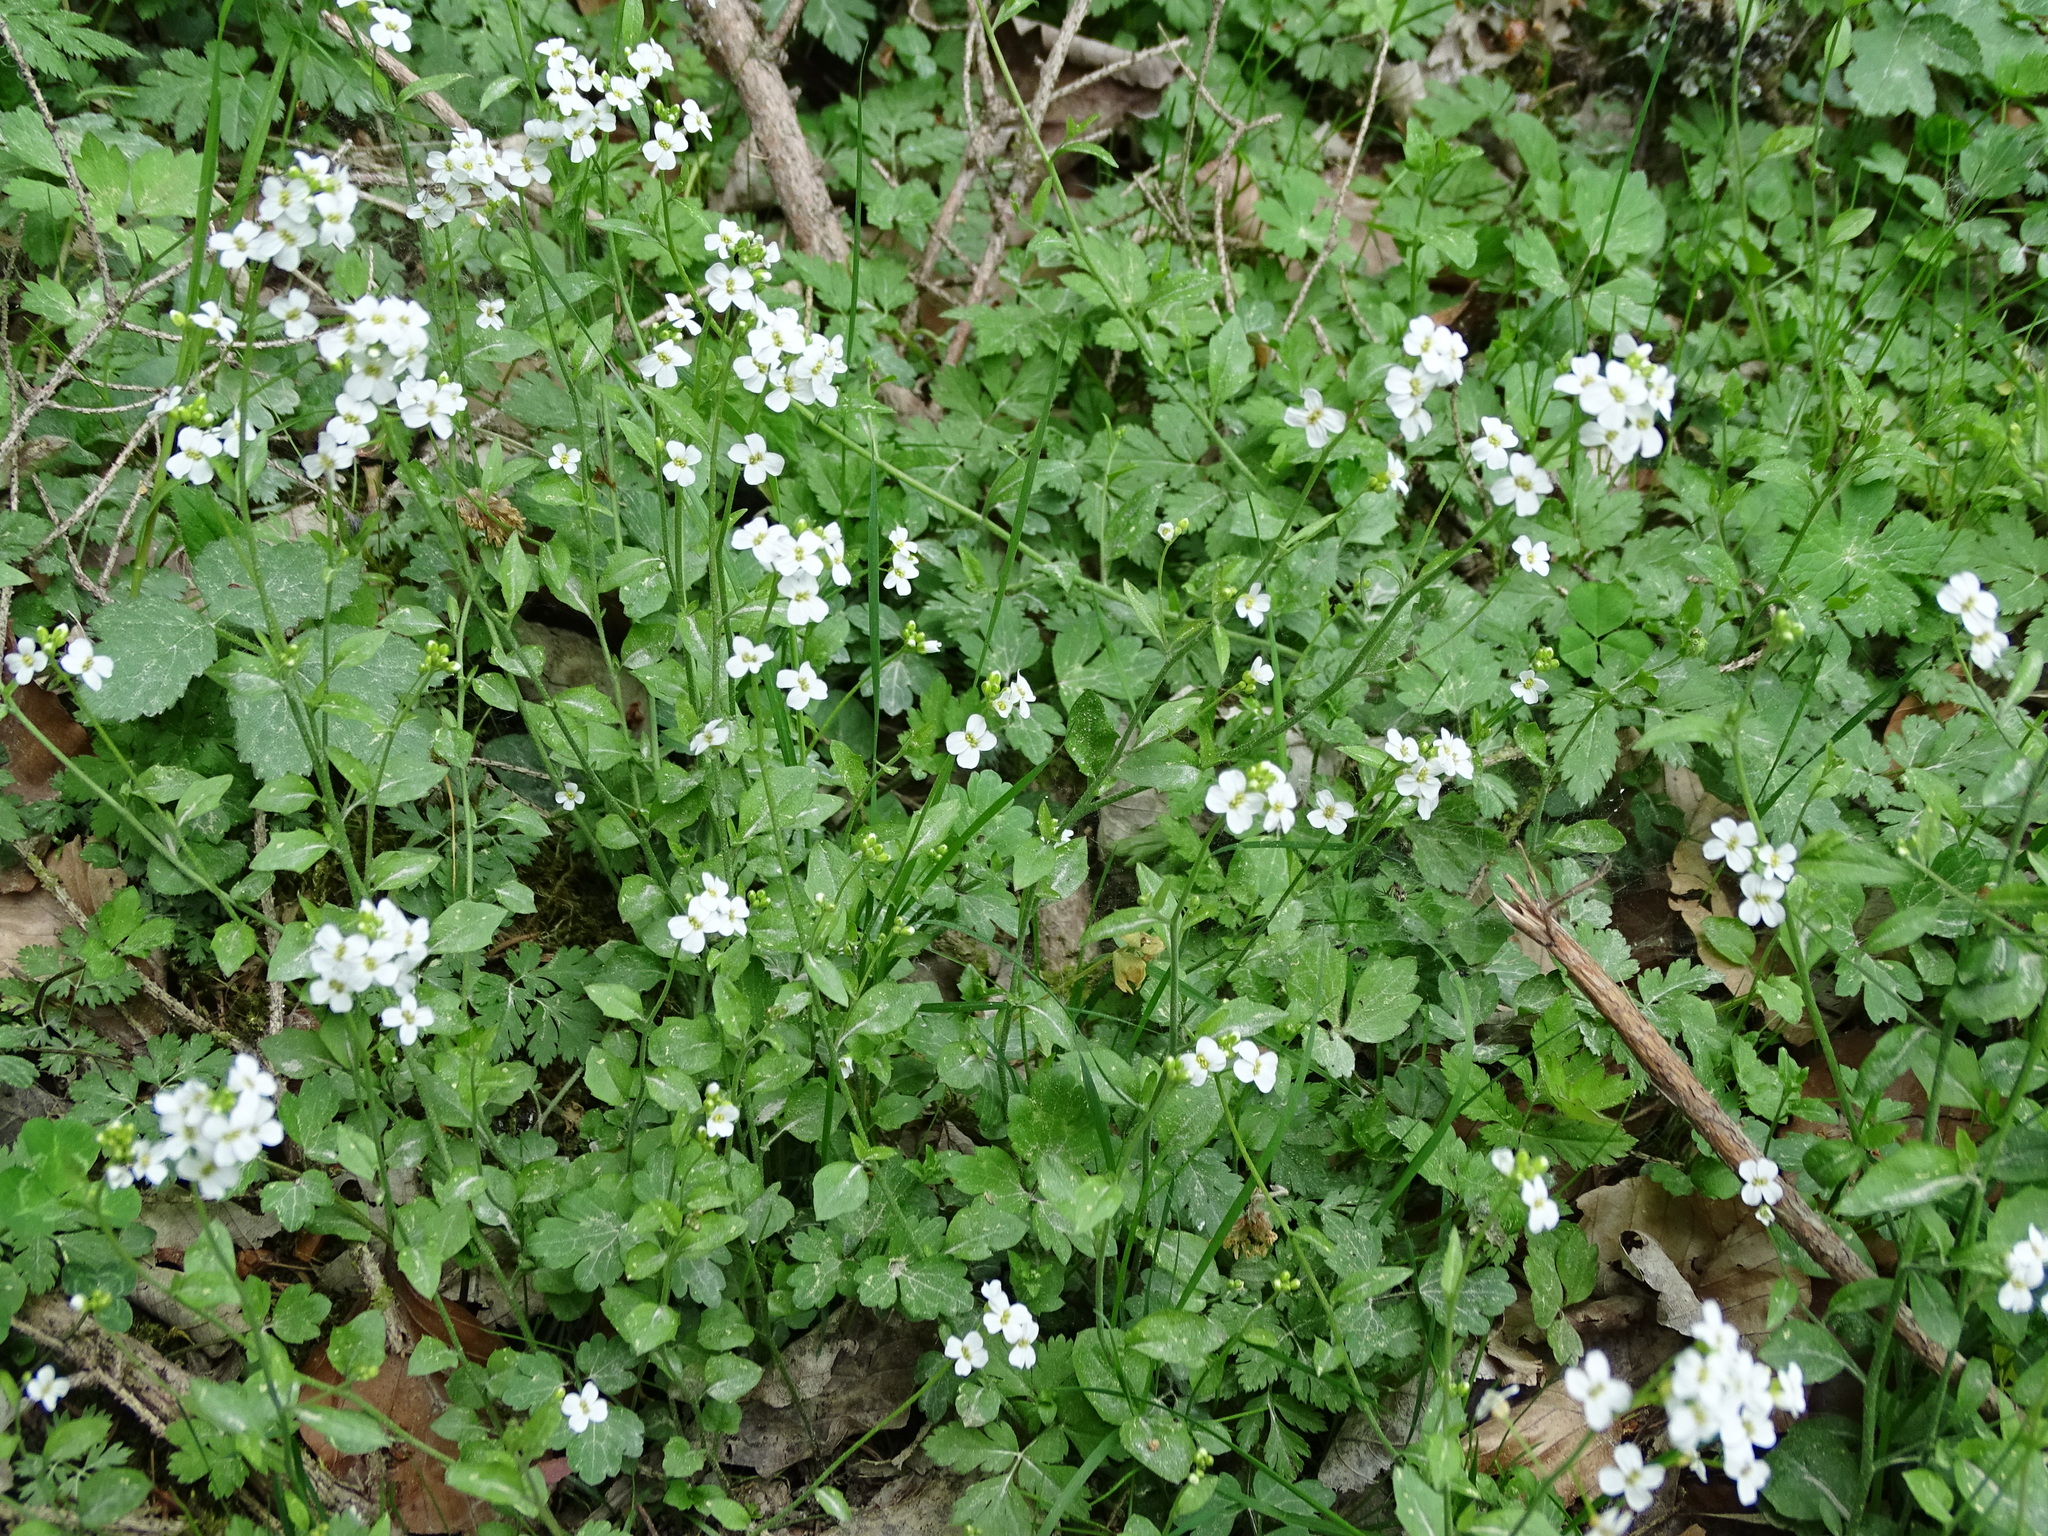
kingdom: Plantae
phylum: Tracheophyta
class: Magnoliopsida
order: Brassicales
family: Brassicaceae
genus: Arabidopsis
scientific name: Arabidopsis halleri
